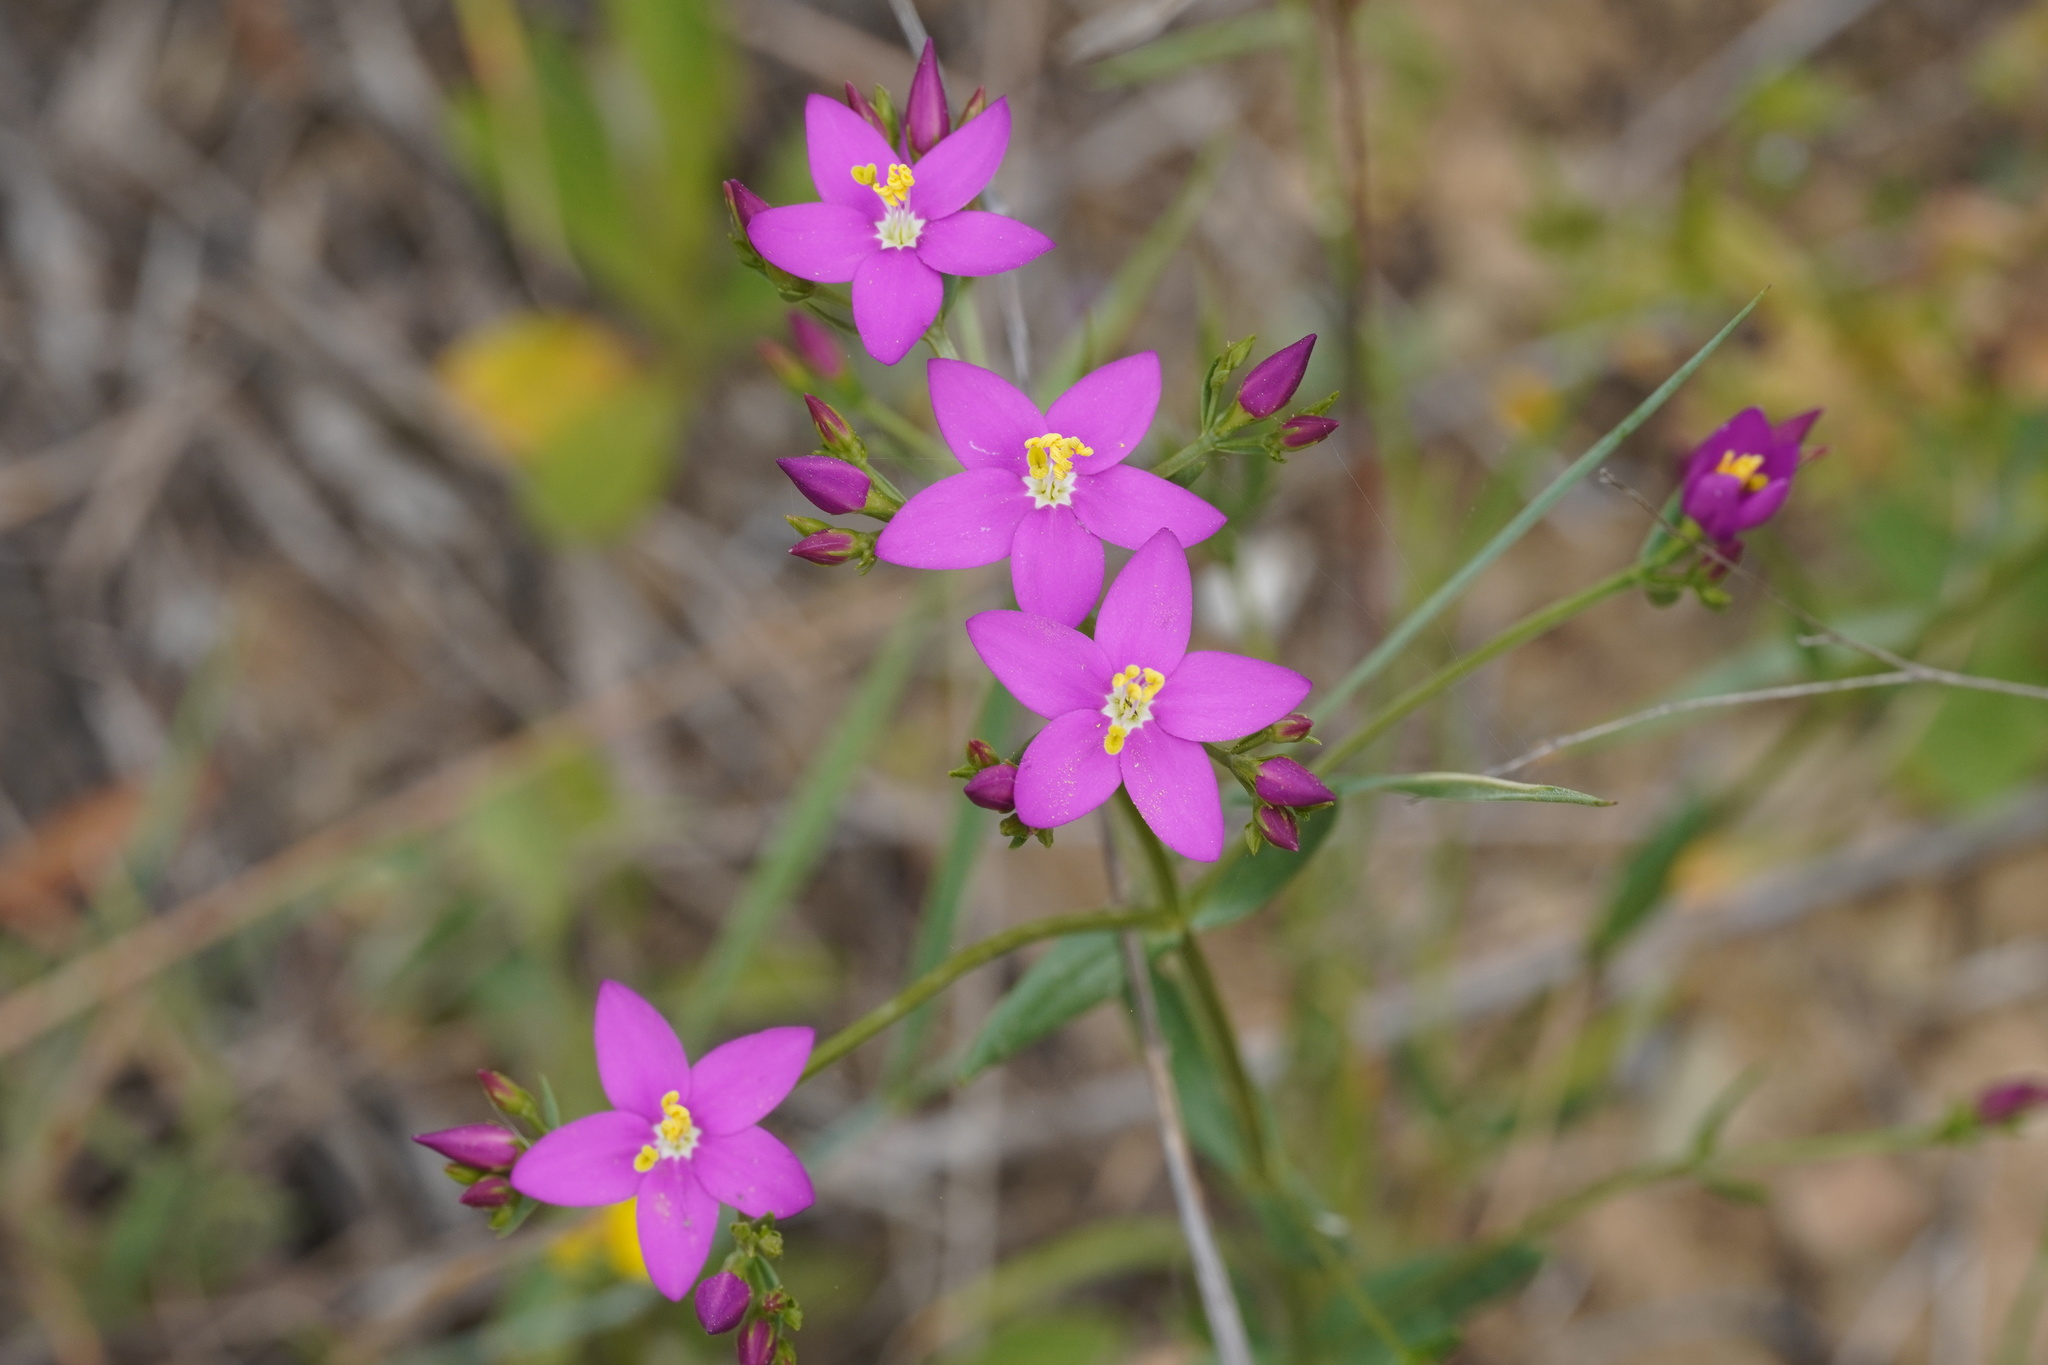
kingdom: Plantae
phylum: Tracheophyta
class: Magnoliopsida
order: Gentianales
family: Gentianaceae
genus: Centaurium
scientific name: Centaurium erythraea
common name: Common centaury
